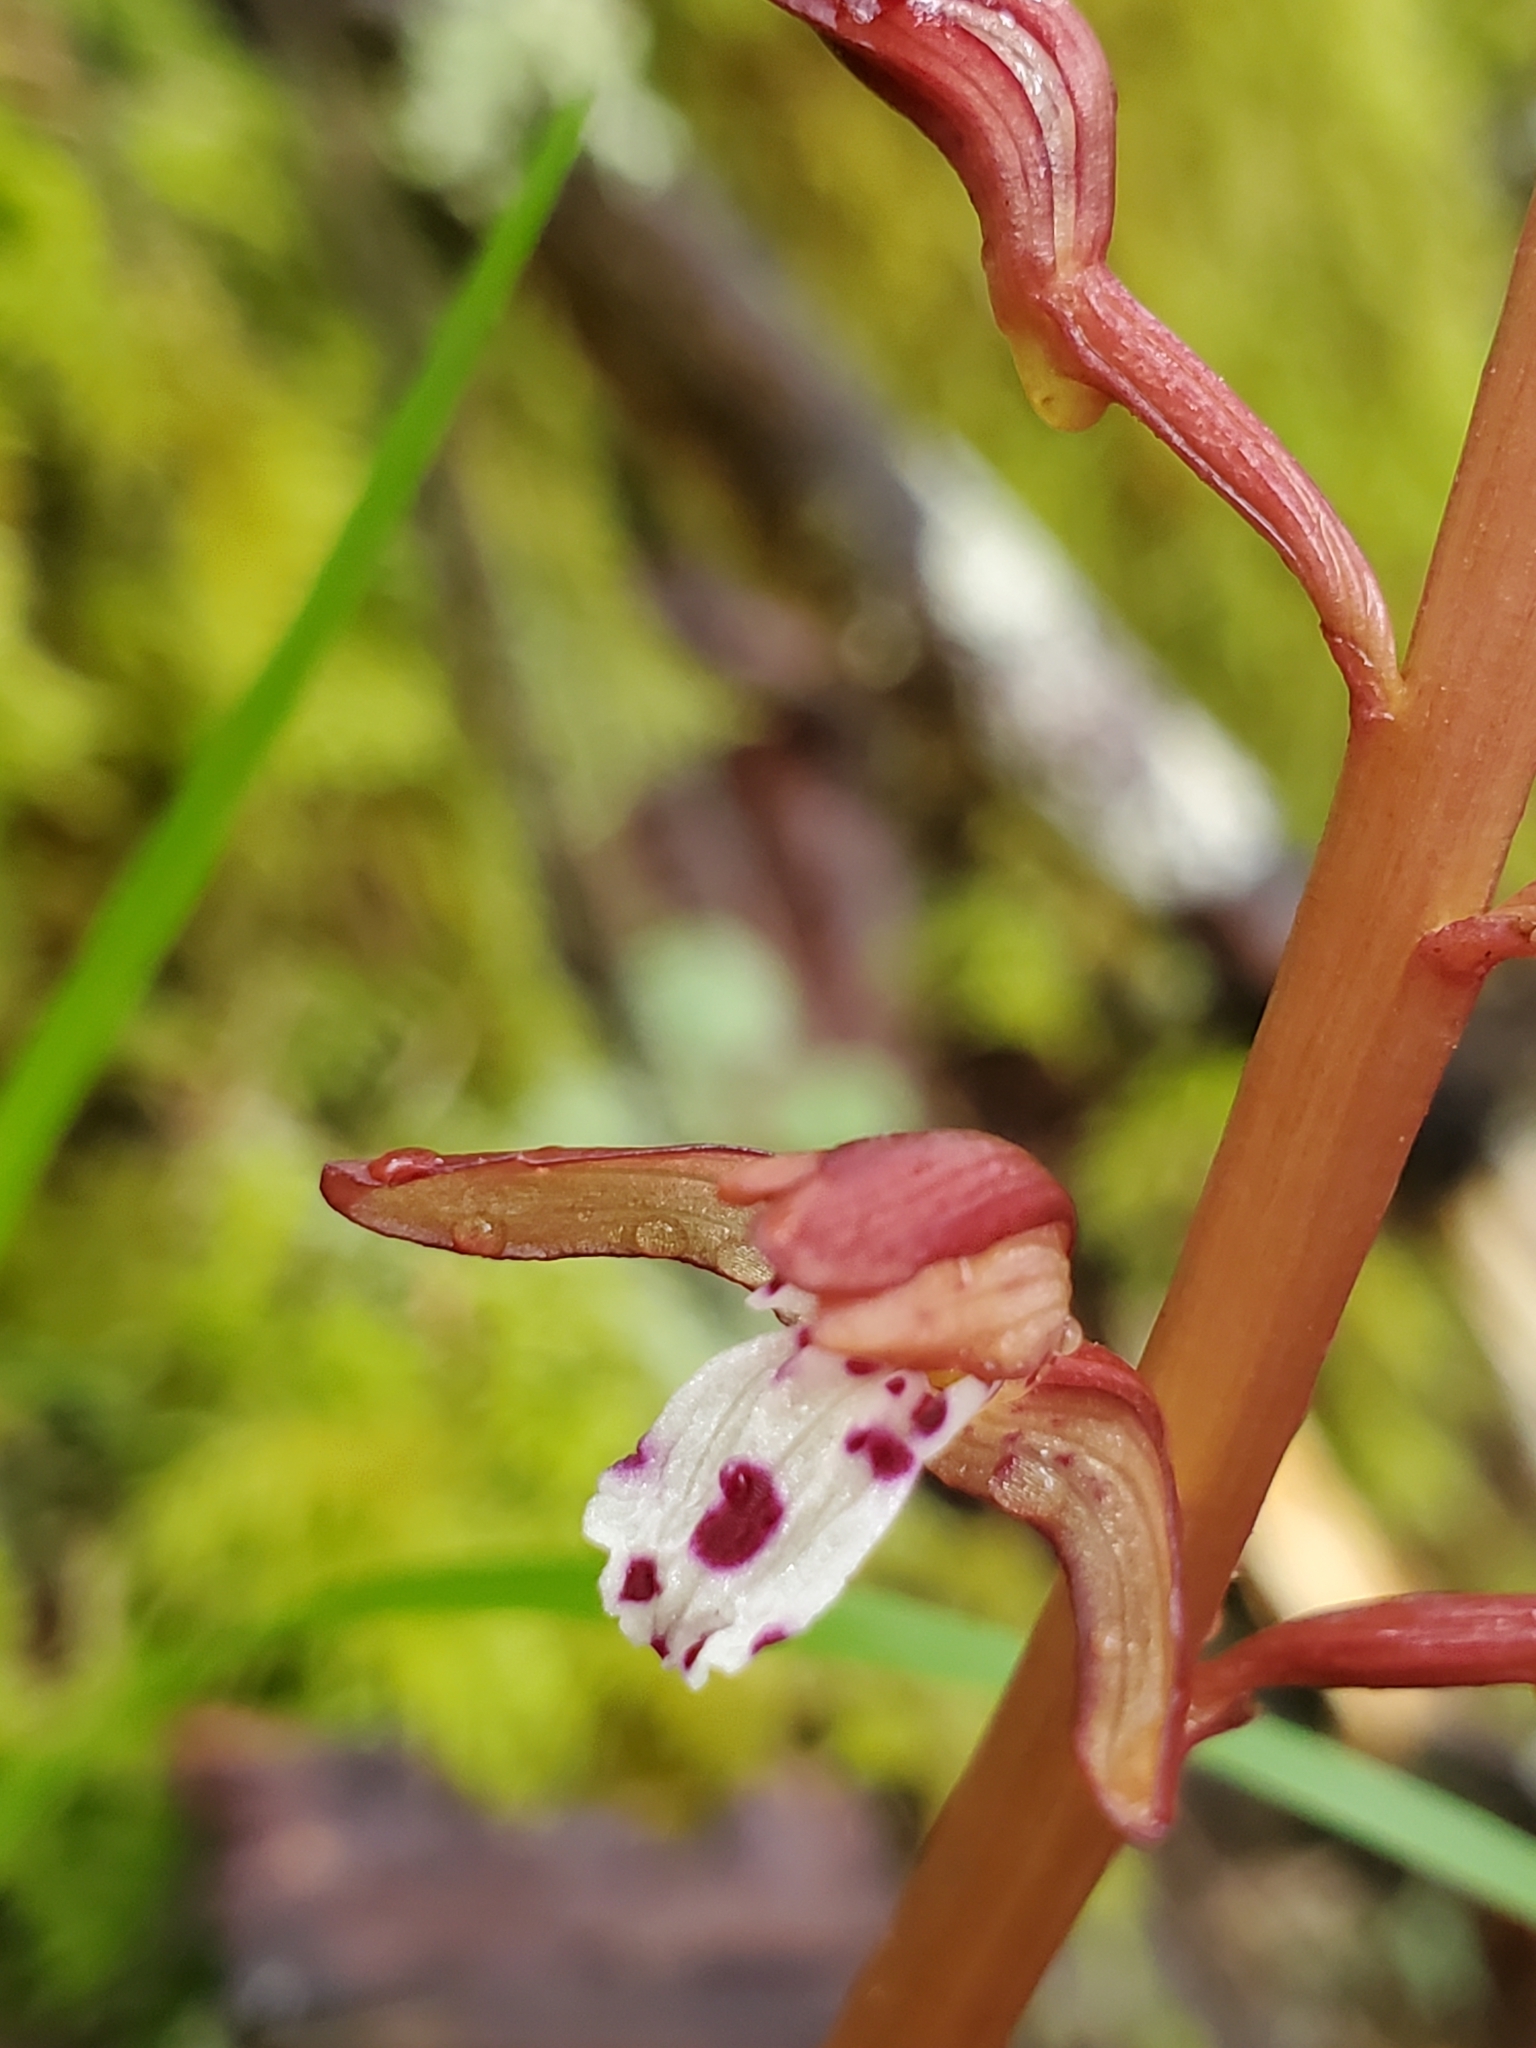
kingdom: Plantae
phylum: Tracheophyta
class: Liliopsida
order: Asparagales
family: Orchidaceae
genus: Corallorhiza
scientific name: Corallorhiza maculata
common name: Spotted coralroot
